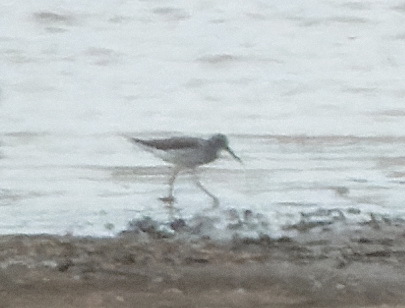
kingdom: Animalia
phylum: Chordata
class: Aves
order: Charadriiformes
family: Scolopacidae
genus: Tringa
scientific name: Tringa nebularia
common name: Common greenshank
